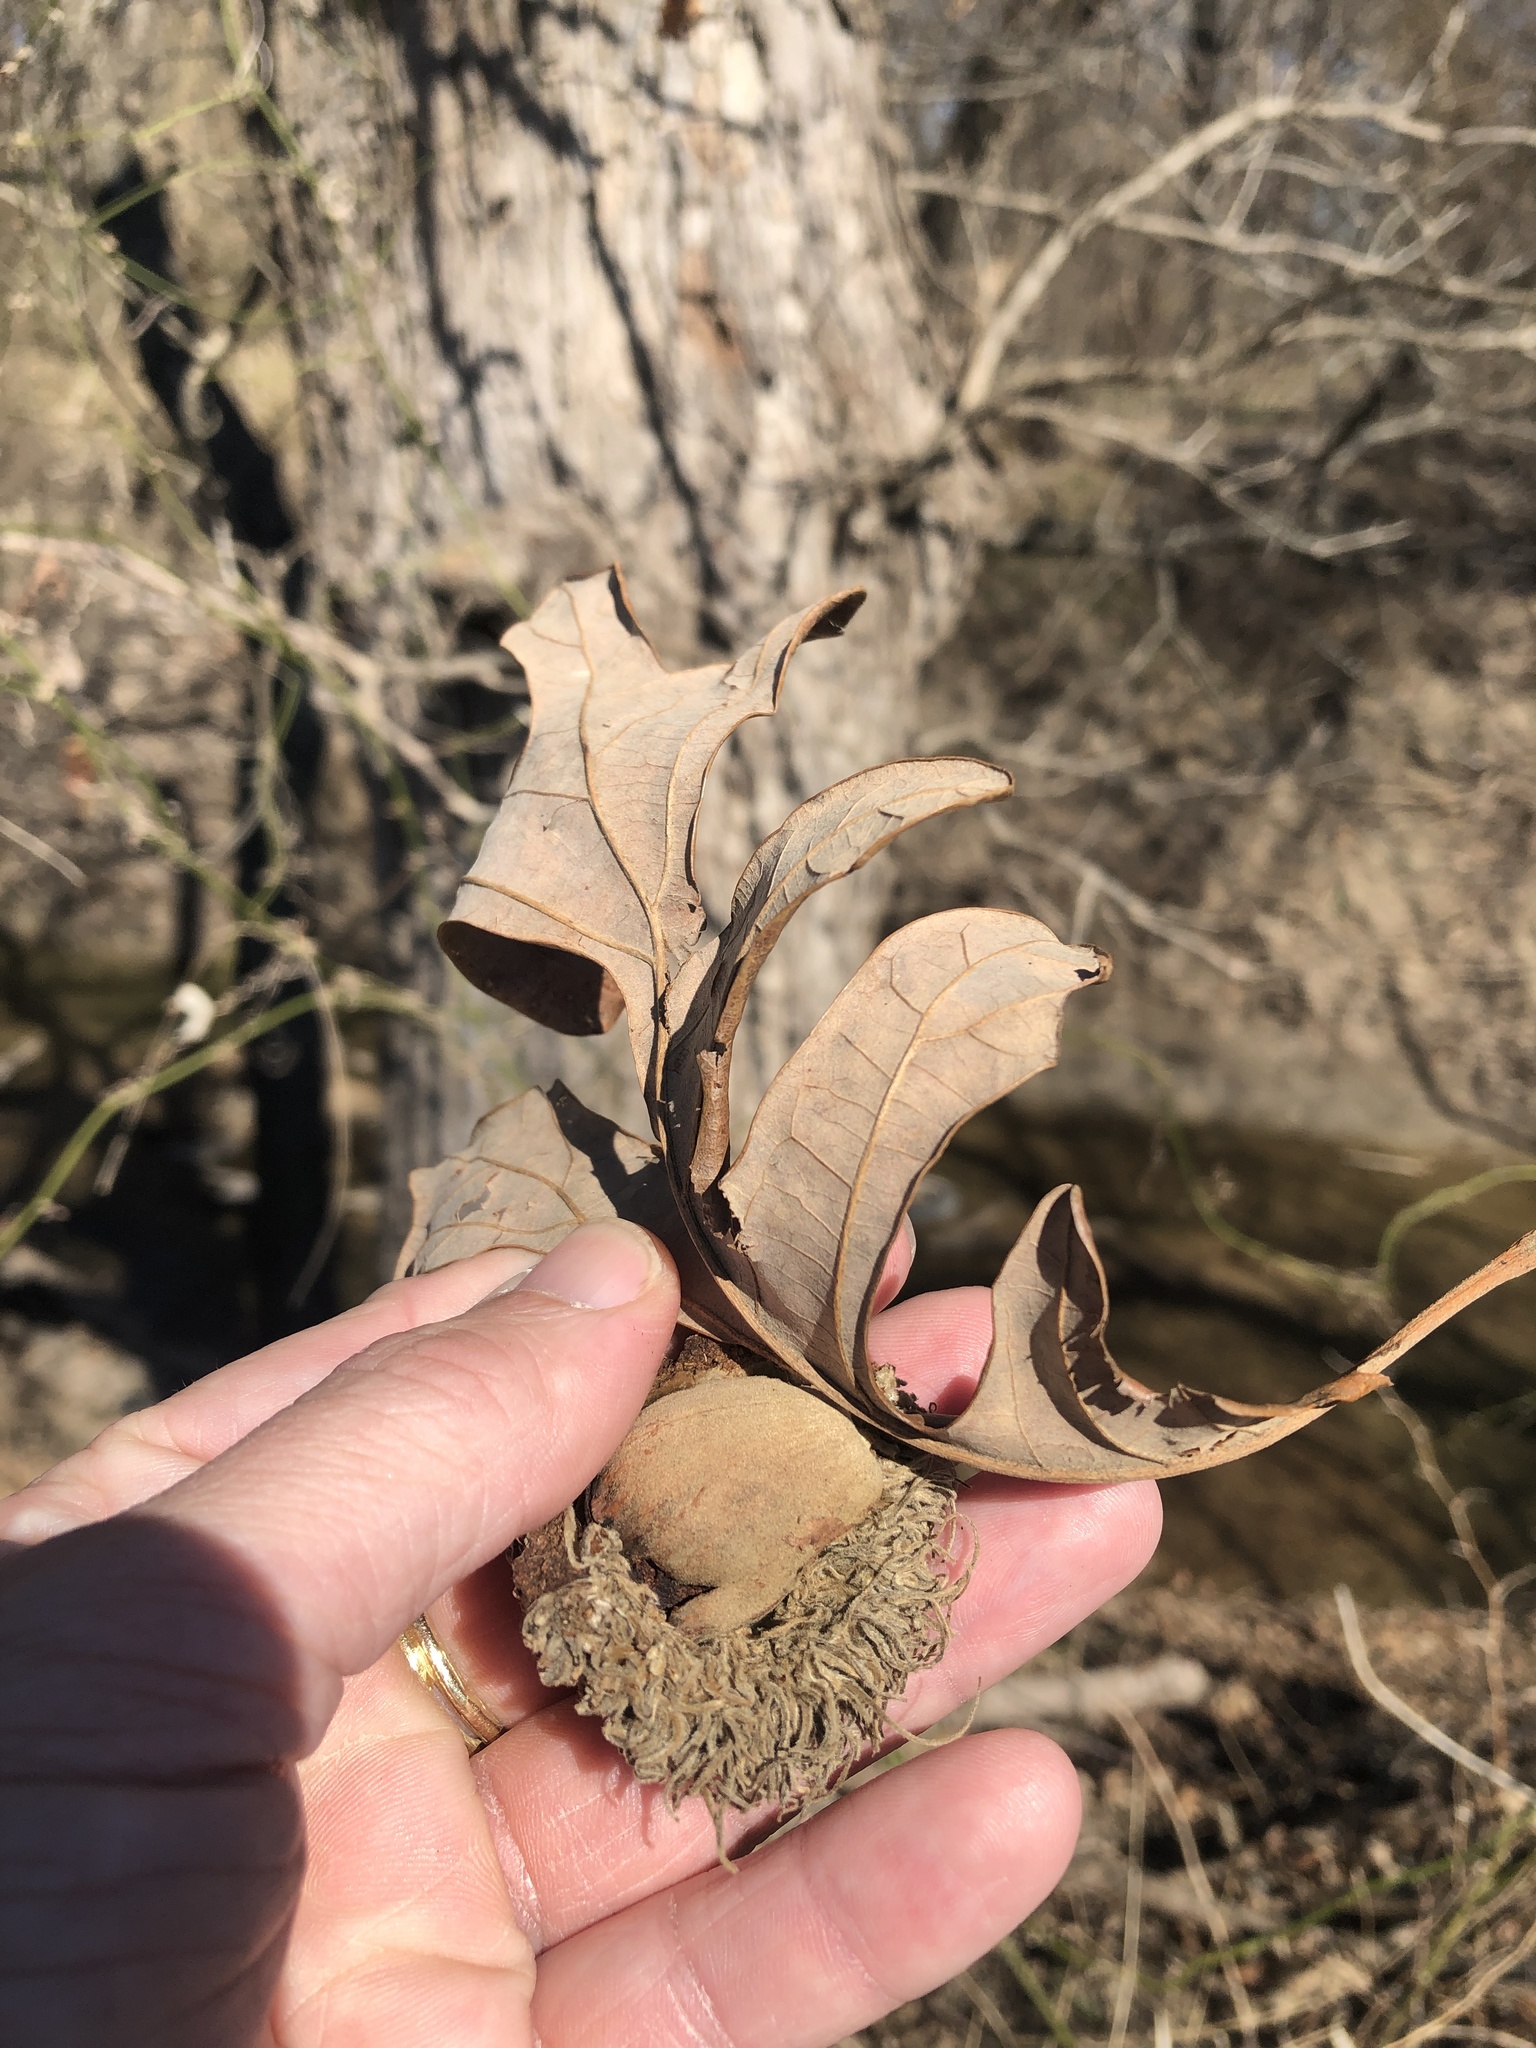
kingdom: Plantae
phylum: Tracheophyta
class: Magnoliopsida
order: Fagales
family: Fagaceae
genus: Quercus
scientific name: Quercus macrocarpa
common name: Bur oak
